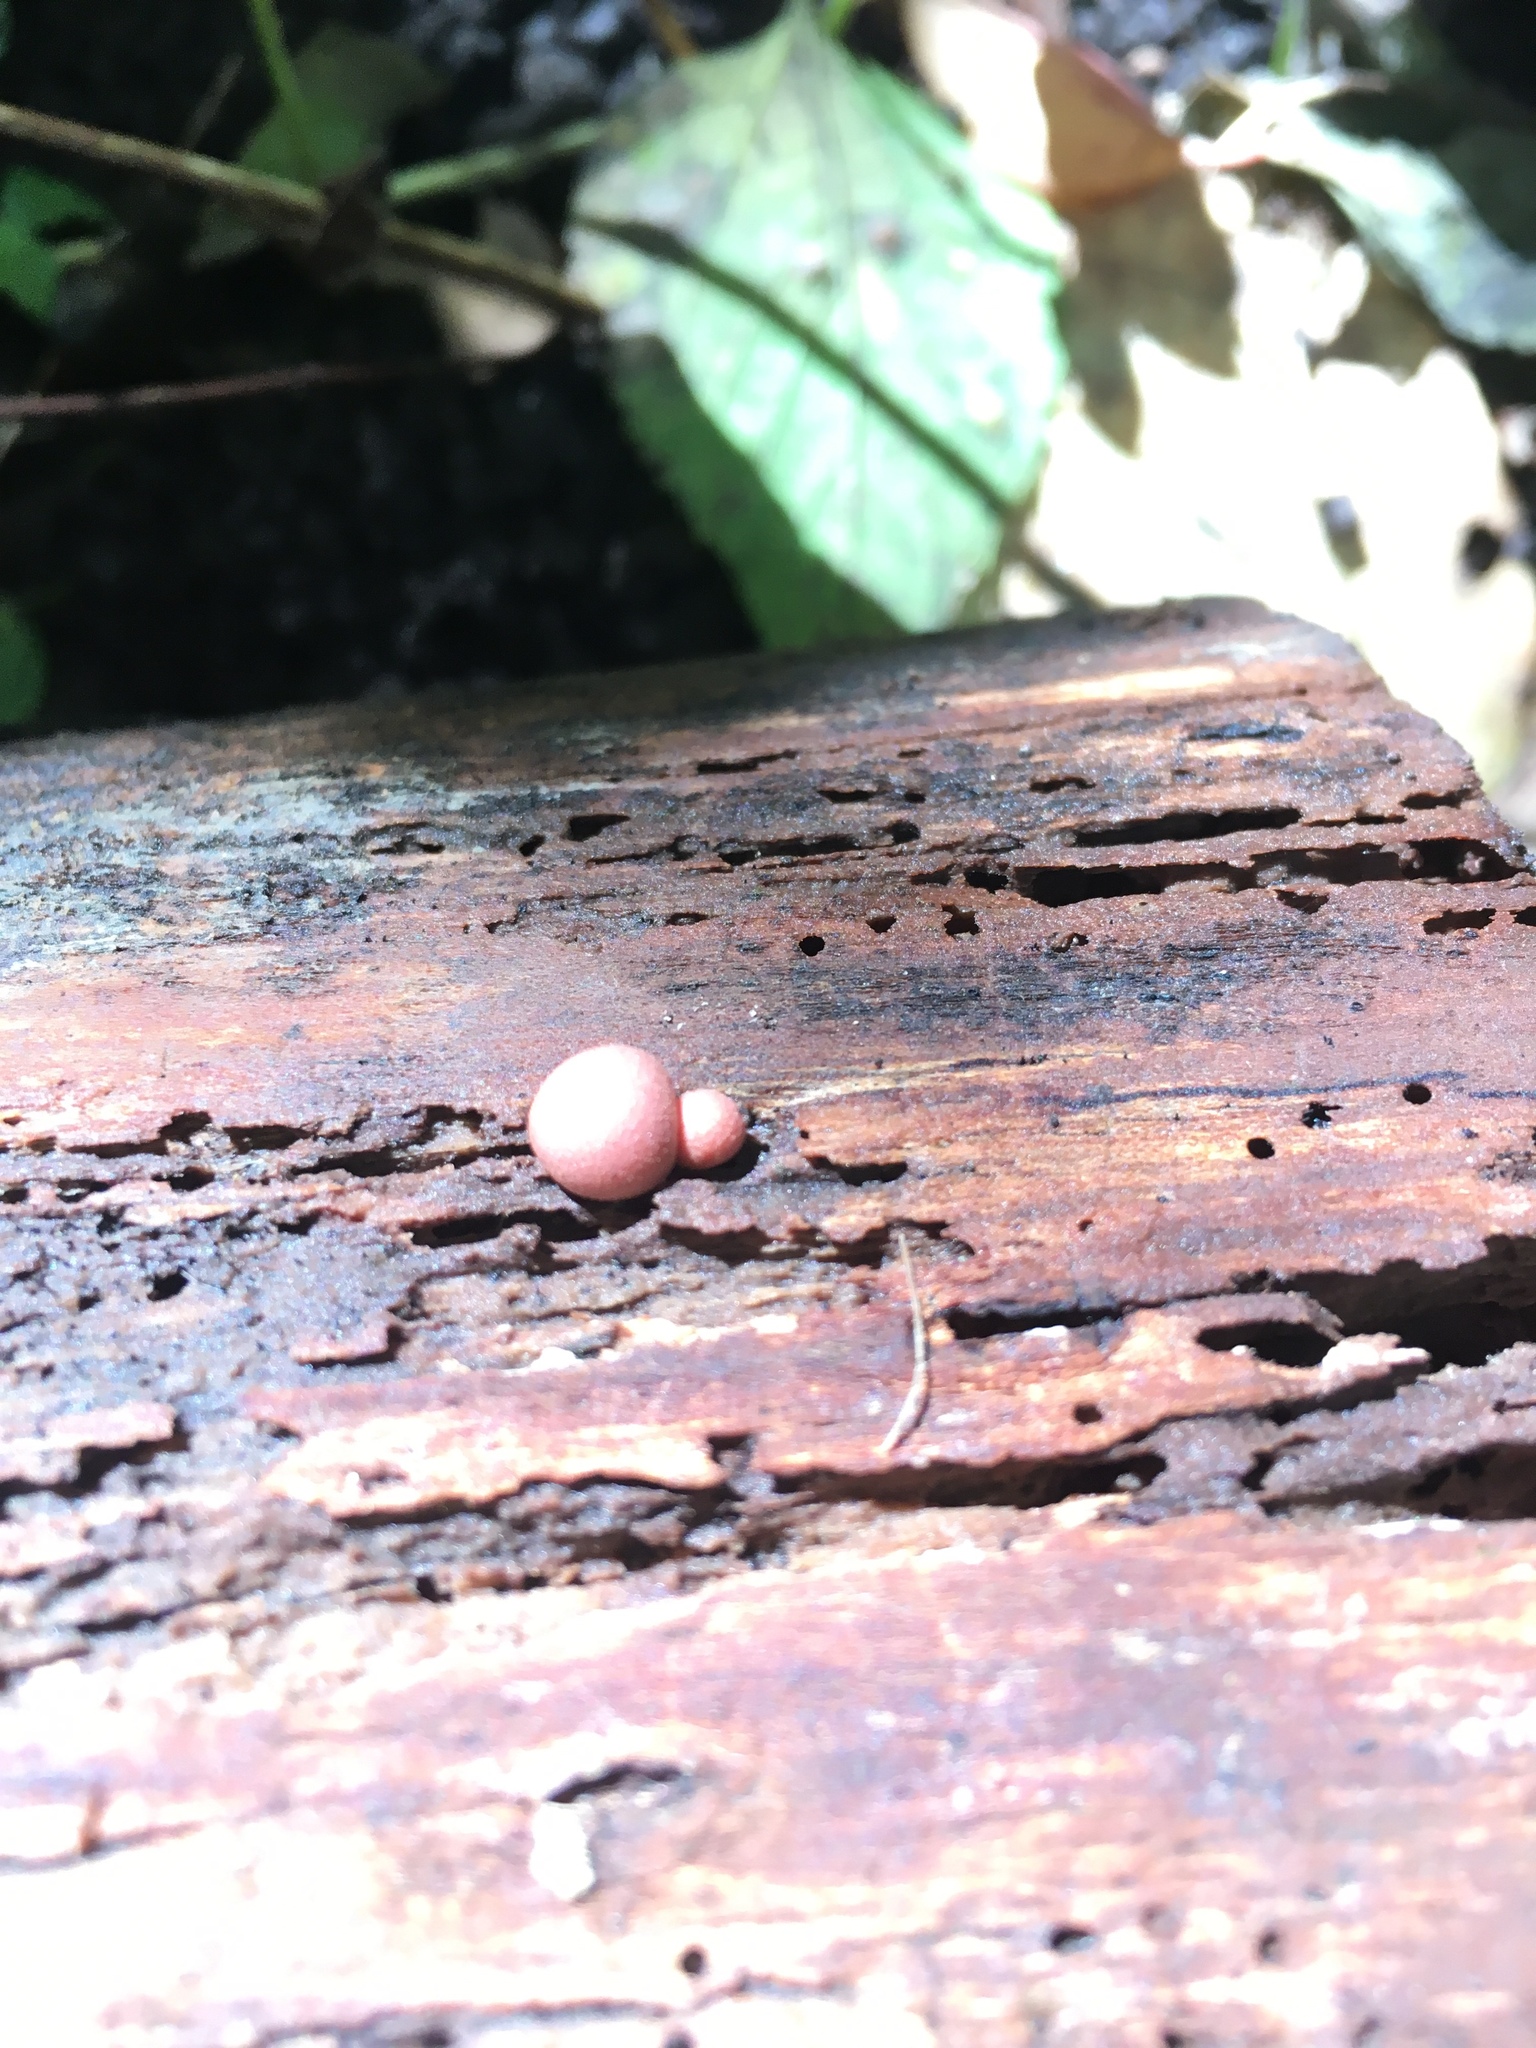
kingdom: Protozoa
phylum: Mycetozoa
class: Myxomycetes
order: Cribrariales
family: Tubiferaceae
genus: Lycogala
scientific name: Lycogala epidendrum
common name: Wolf's milk
